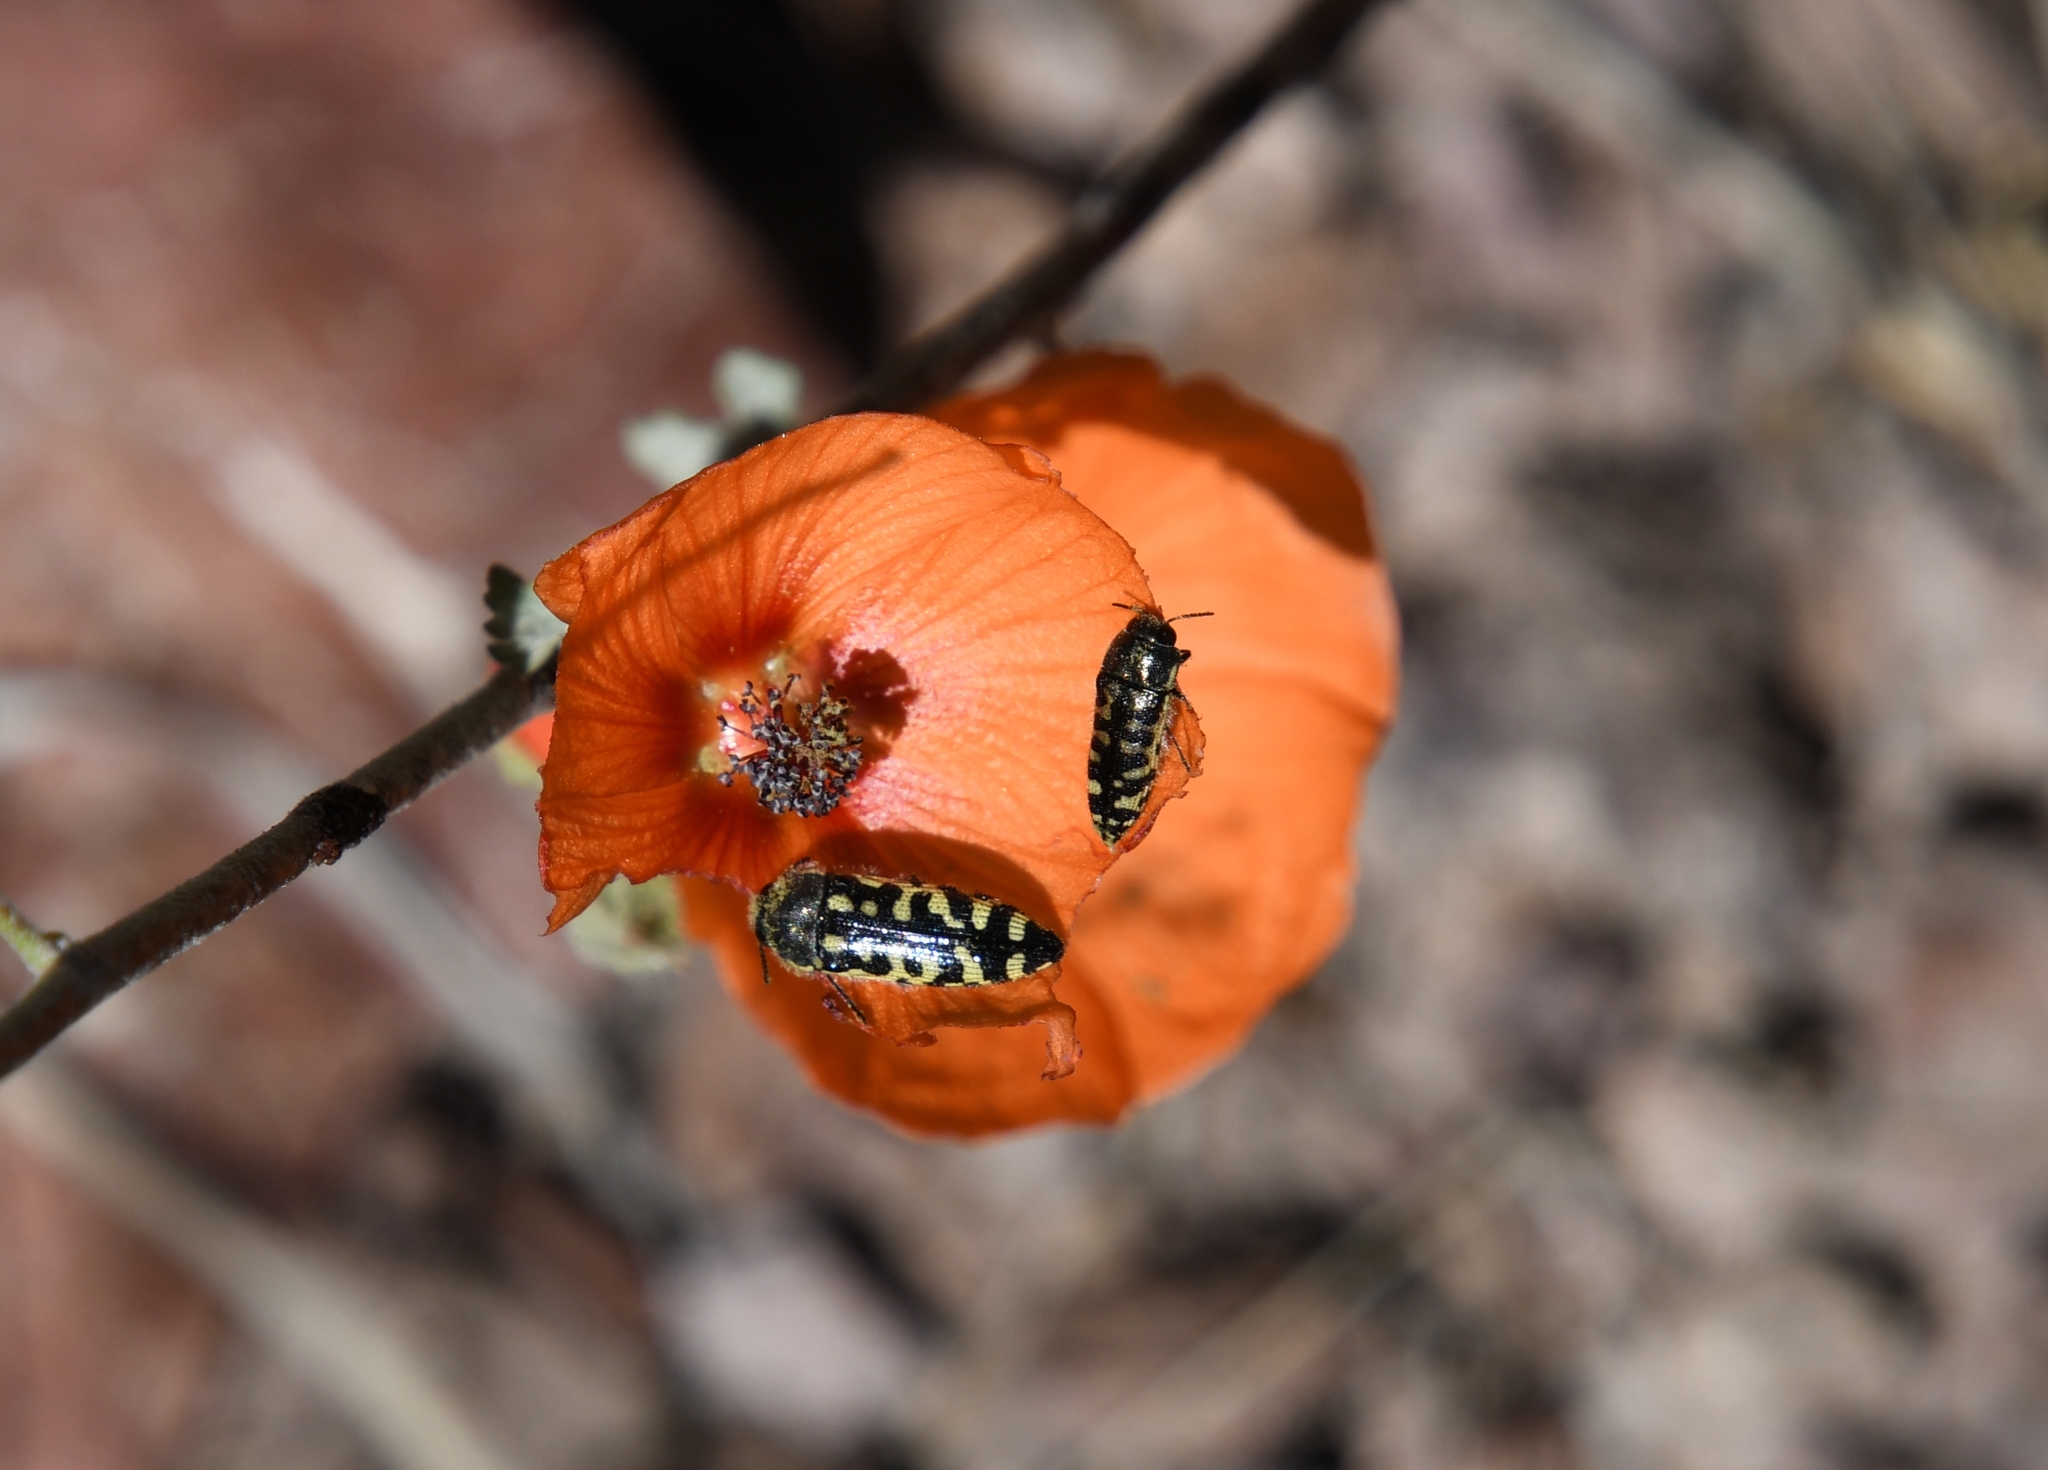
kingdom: Animalia
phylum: Arthropoda
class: Insecta
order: Coleoptera
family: Buprestidae
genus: Acmaeodera
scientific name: Acmaeodera solitaria
